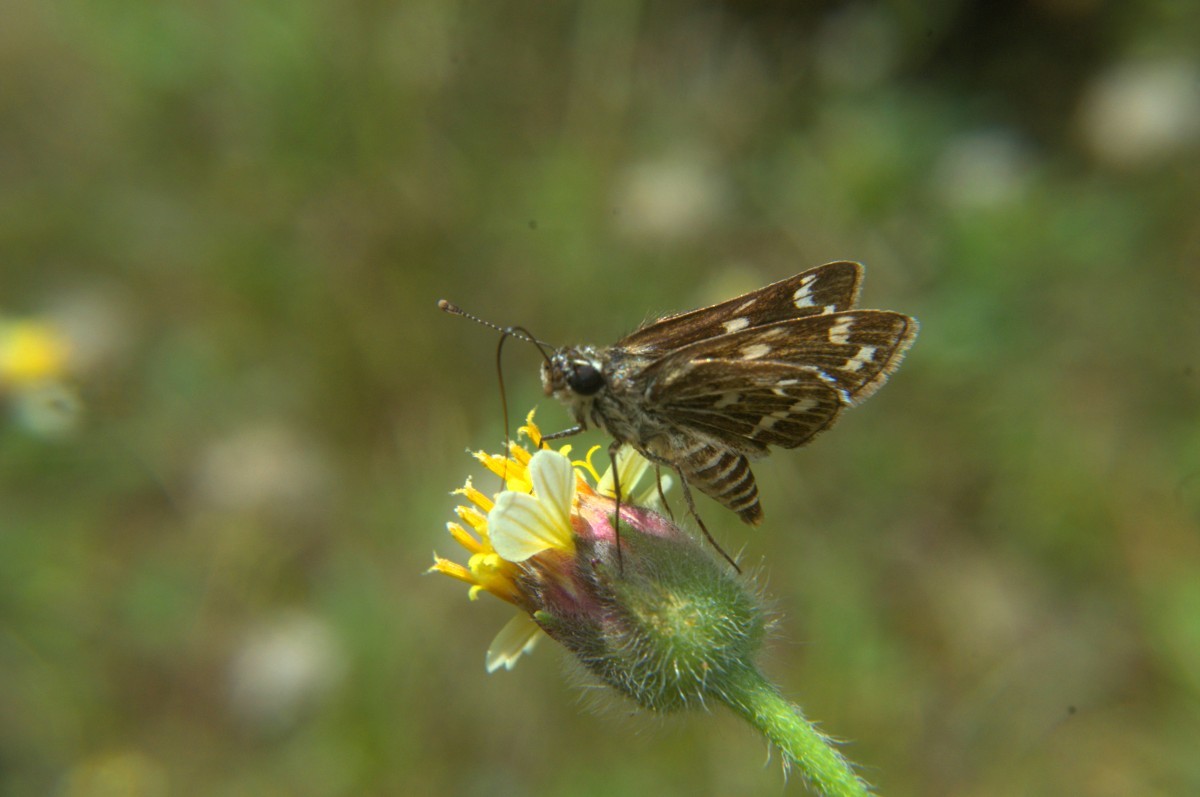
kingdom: Animalia
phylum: Arthropoda
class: Insecta
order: Lepidoptera
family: Hesperiidae
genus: Taractrocera
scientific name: Taractrocera maevius
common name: Common grass-dart
